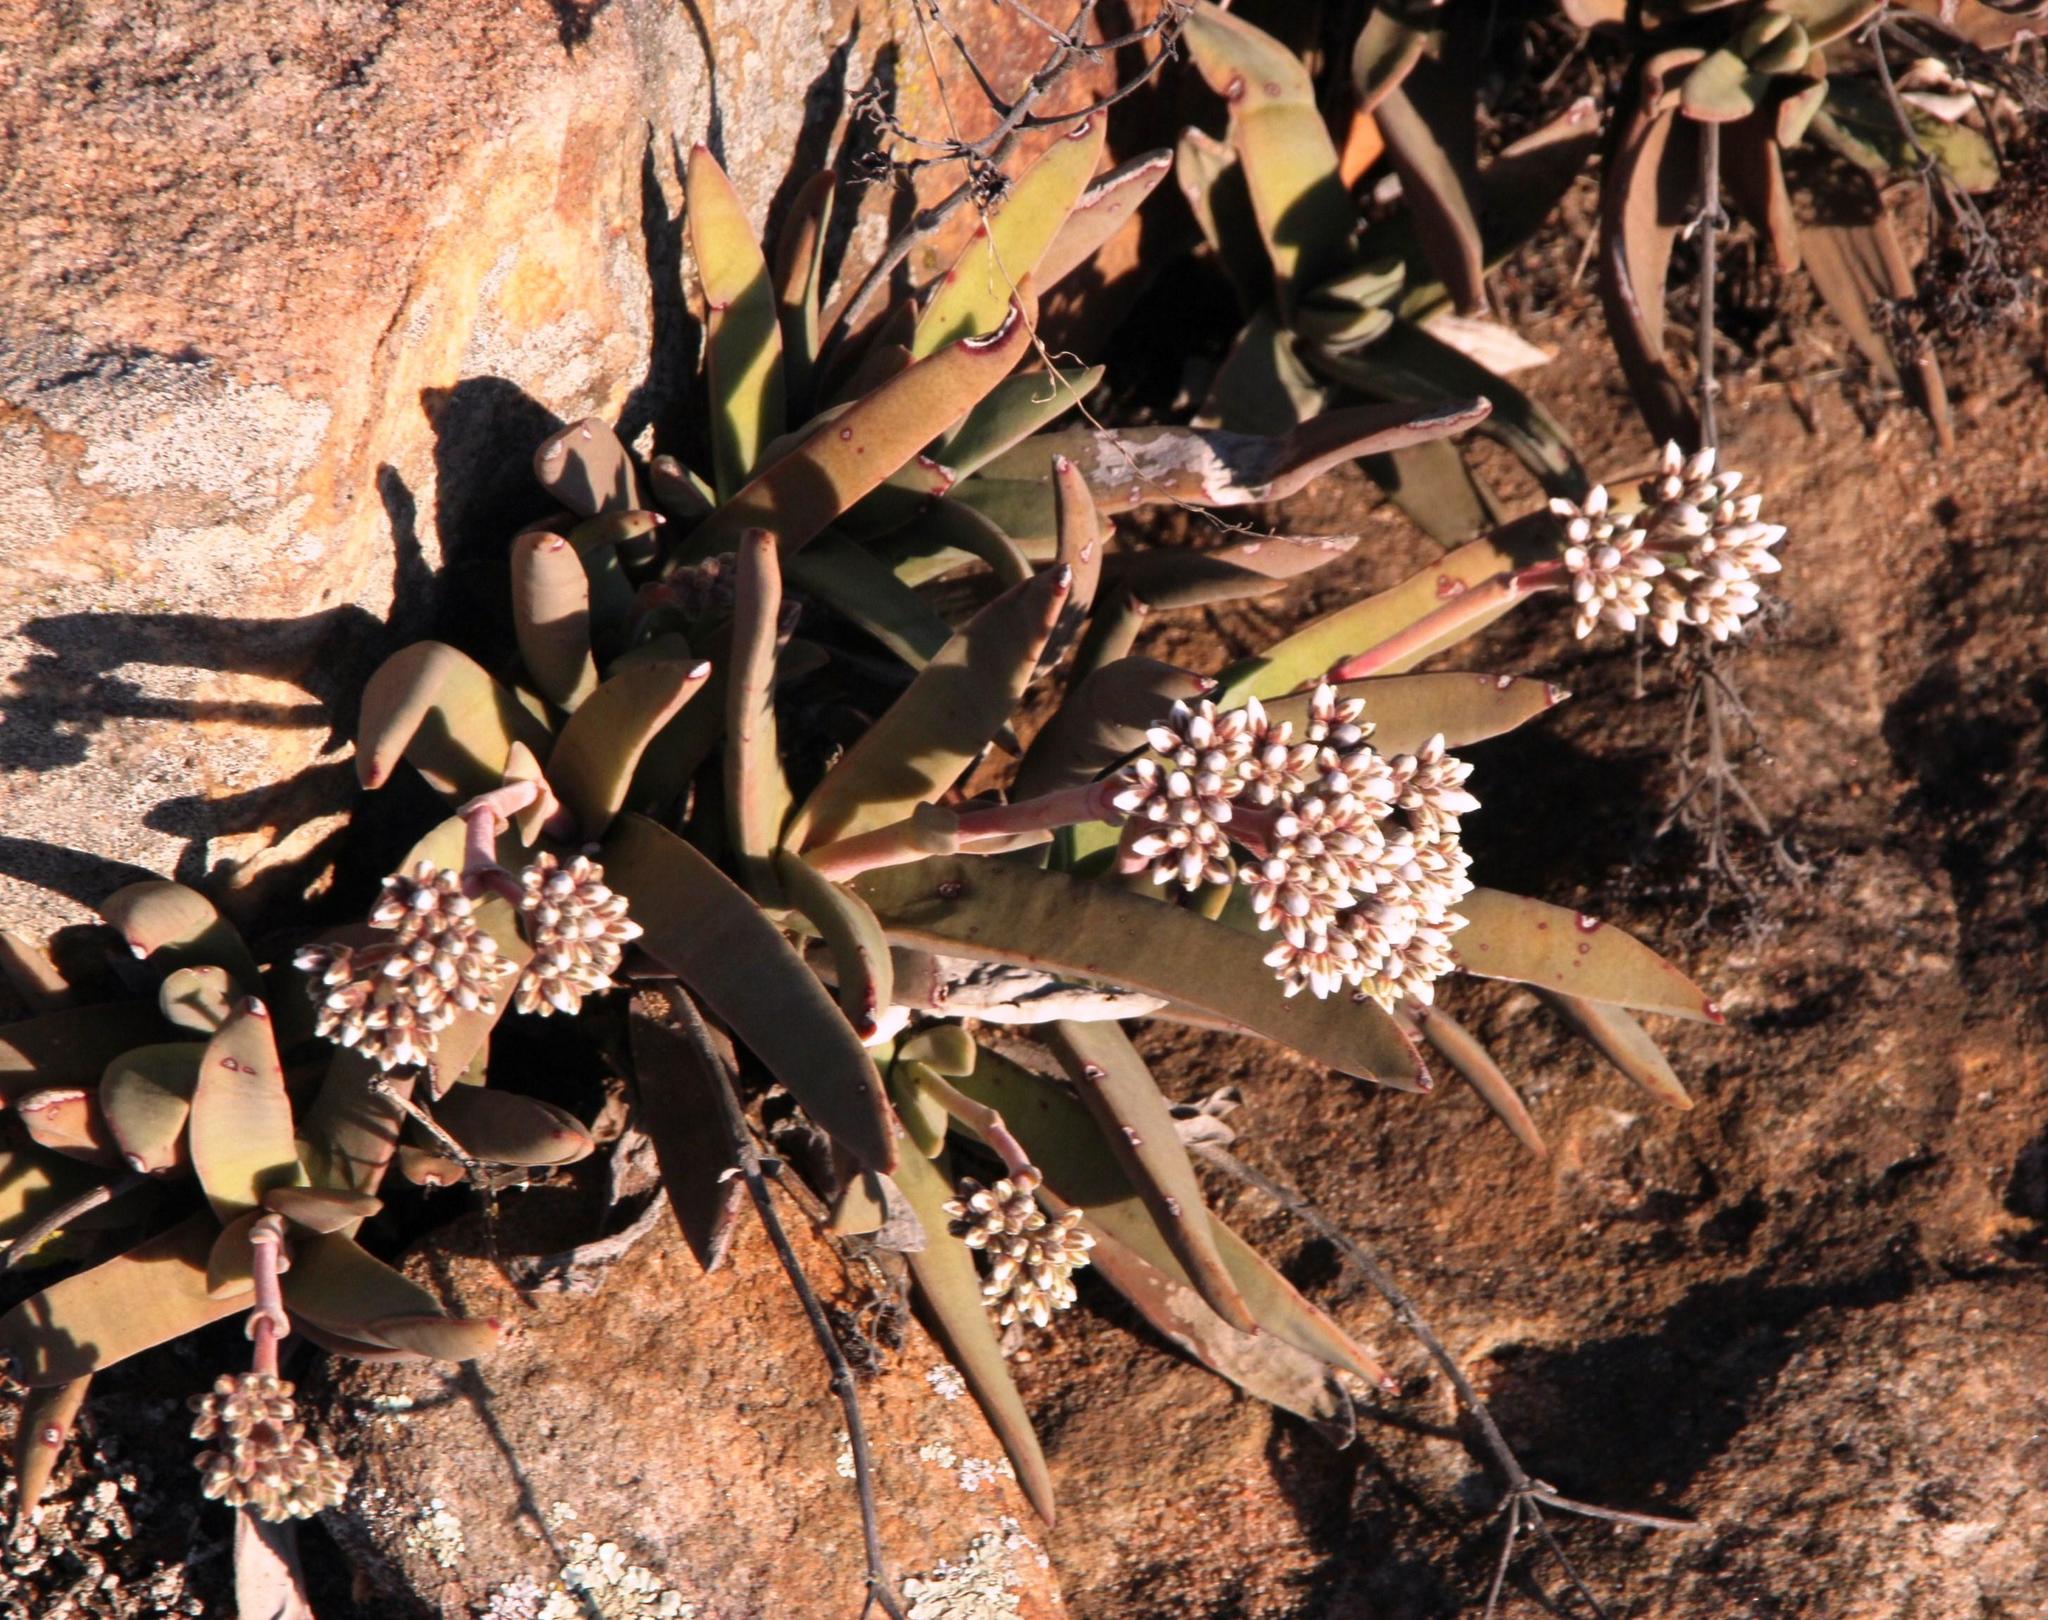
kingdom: Plantae
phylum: Tracheophyta
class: Magnoliopsida
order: Saxifragales
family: Crassulaceae
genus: Crassula
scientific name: Crassula perfoliata
